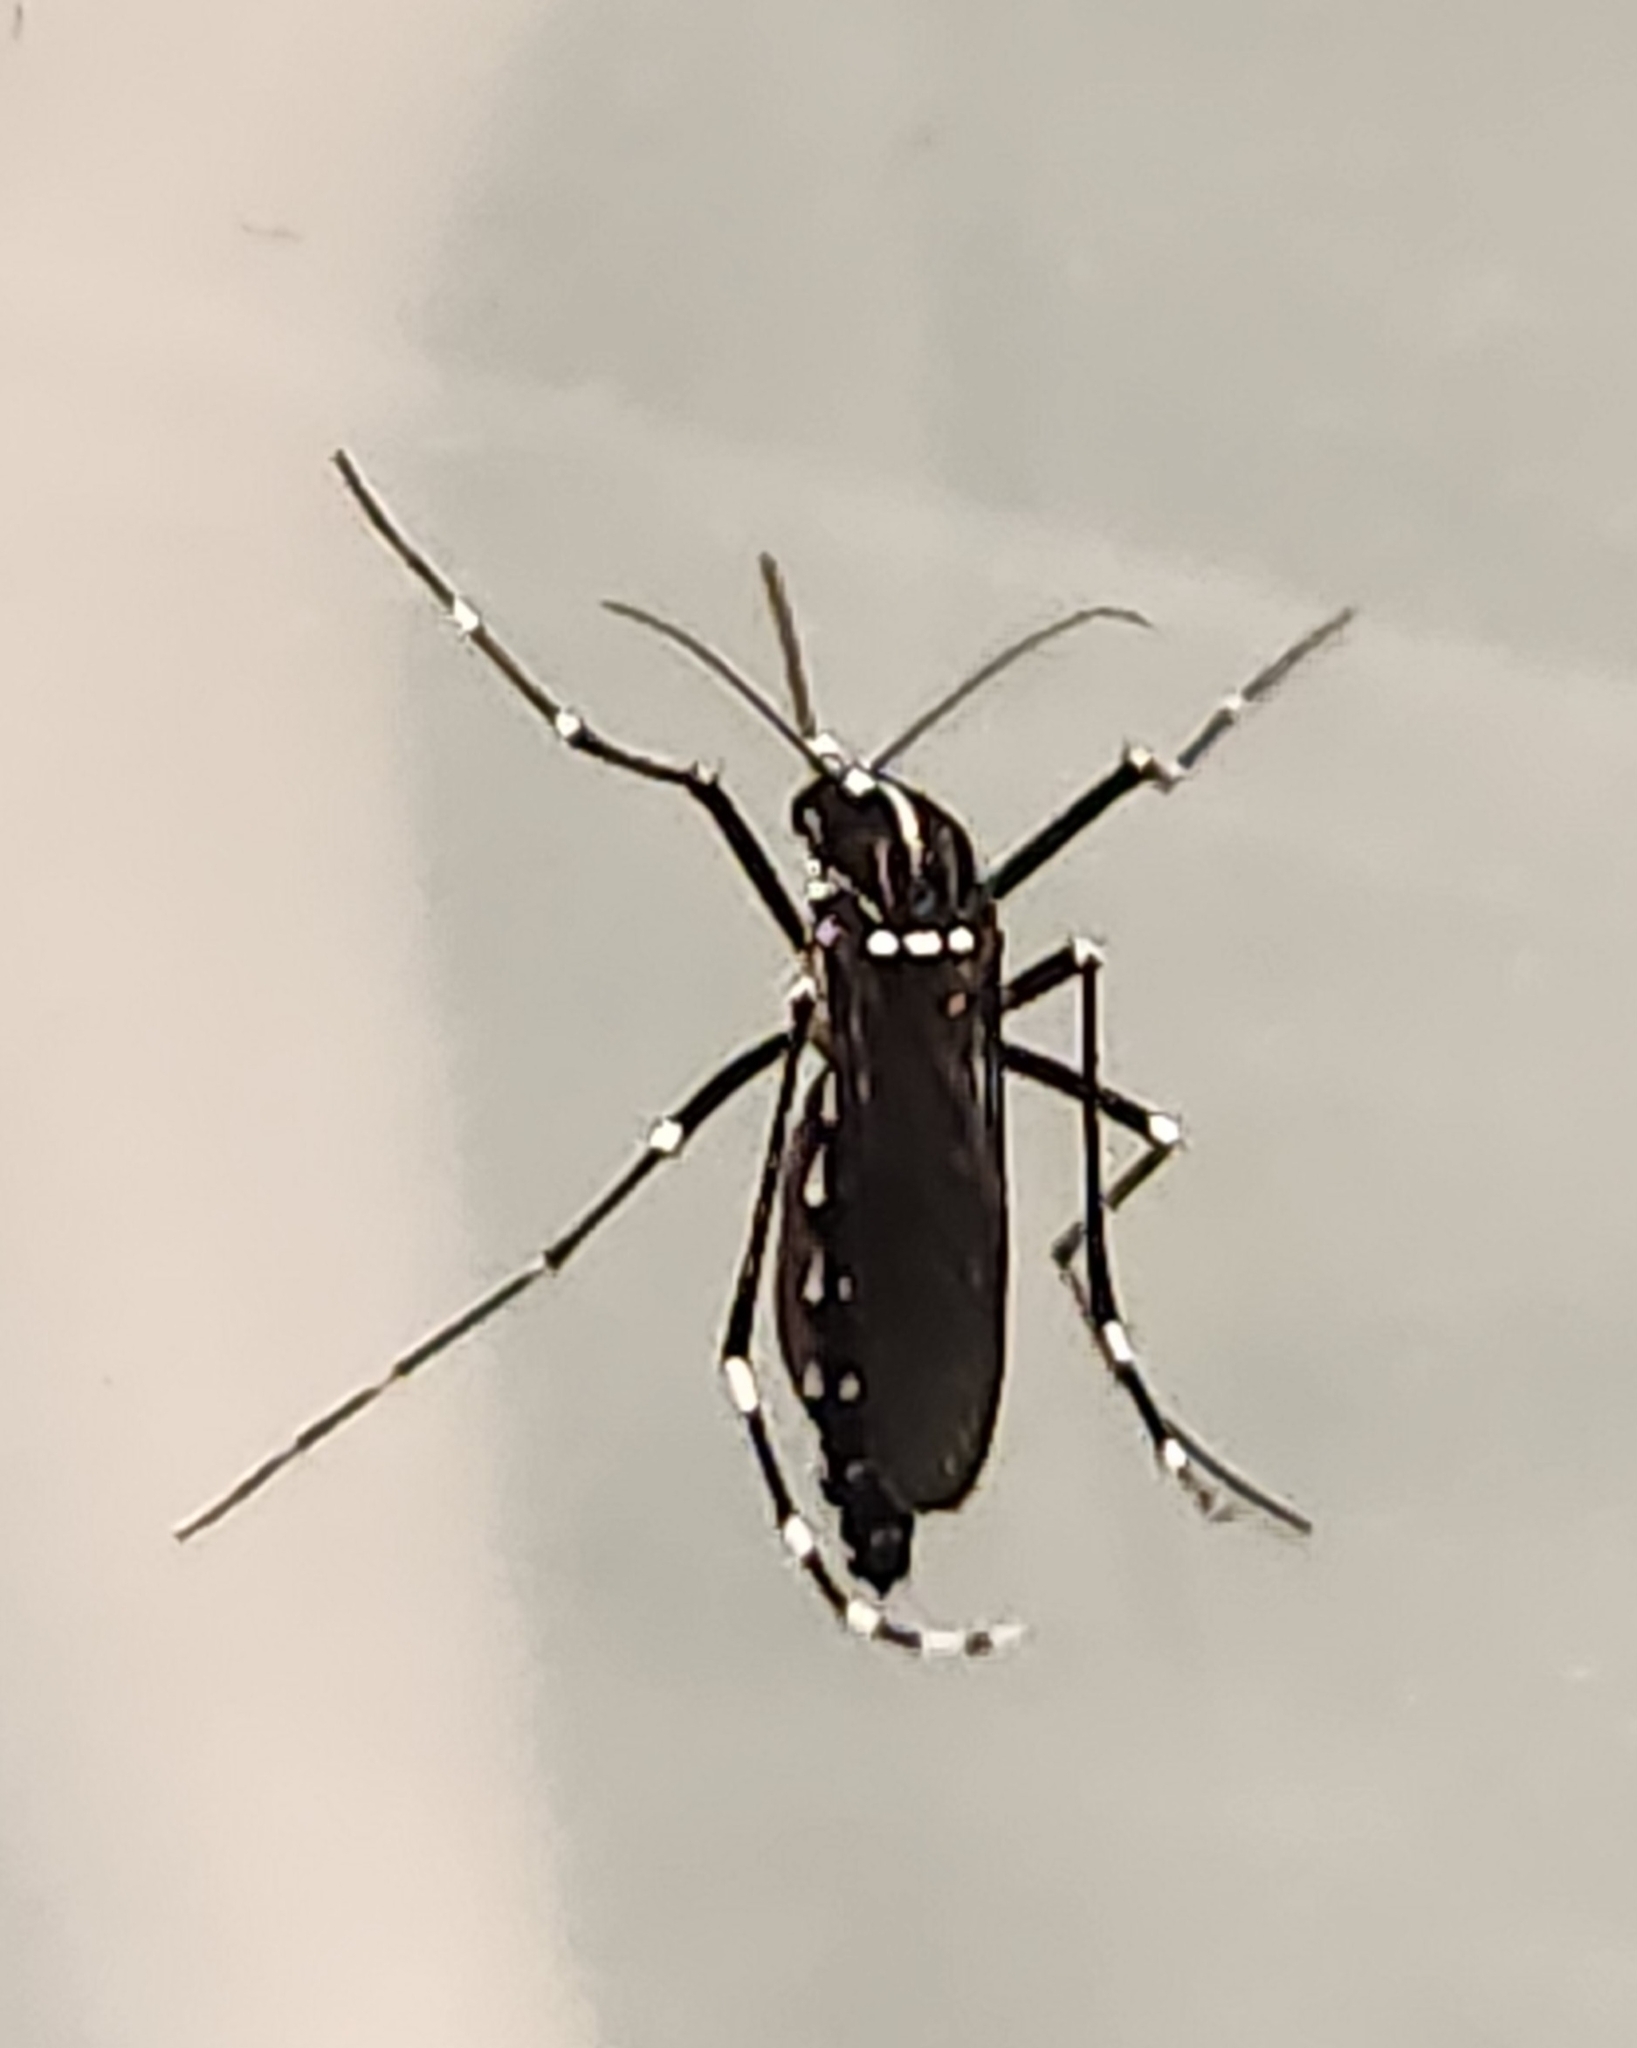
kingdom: Animalia
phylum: Arthropoda
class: Insecta
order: Diptera
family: Culicidae
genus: Aedes
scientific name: Aedes albopictus
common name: Tiger mosquito
